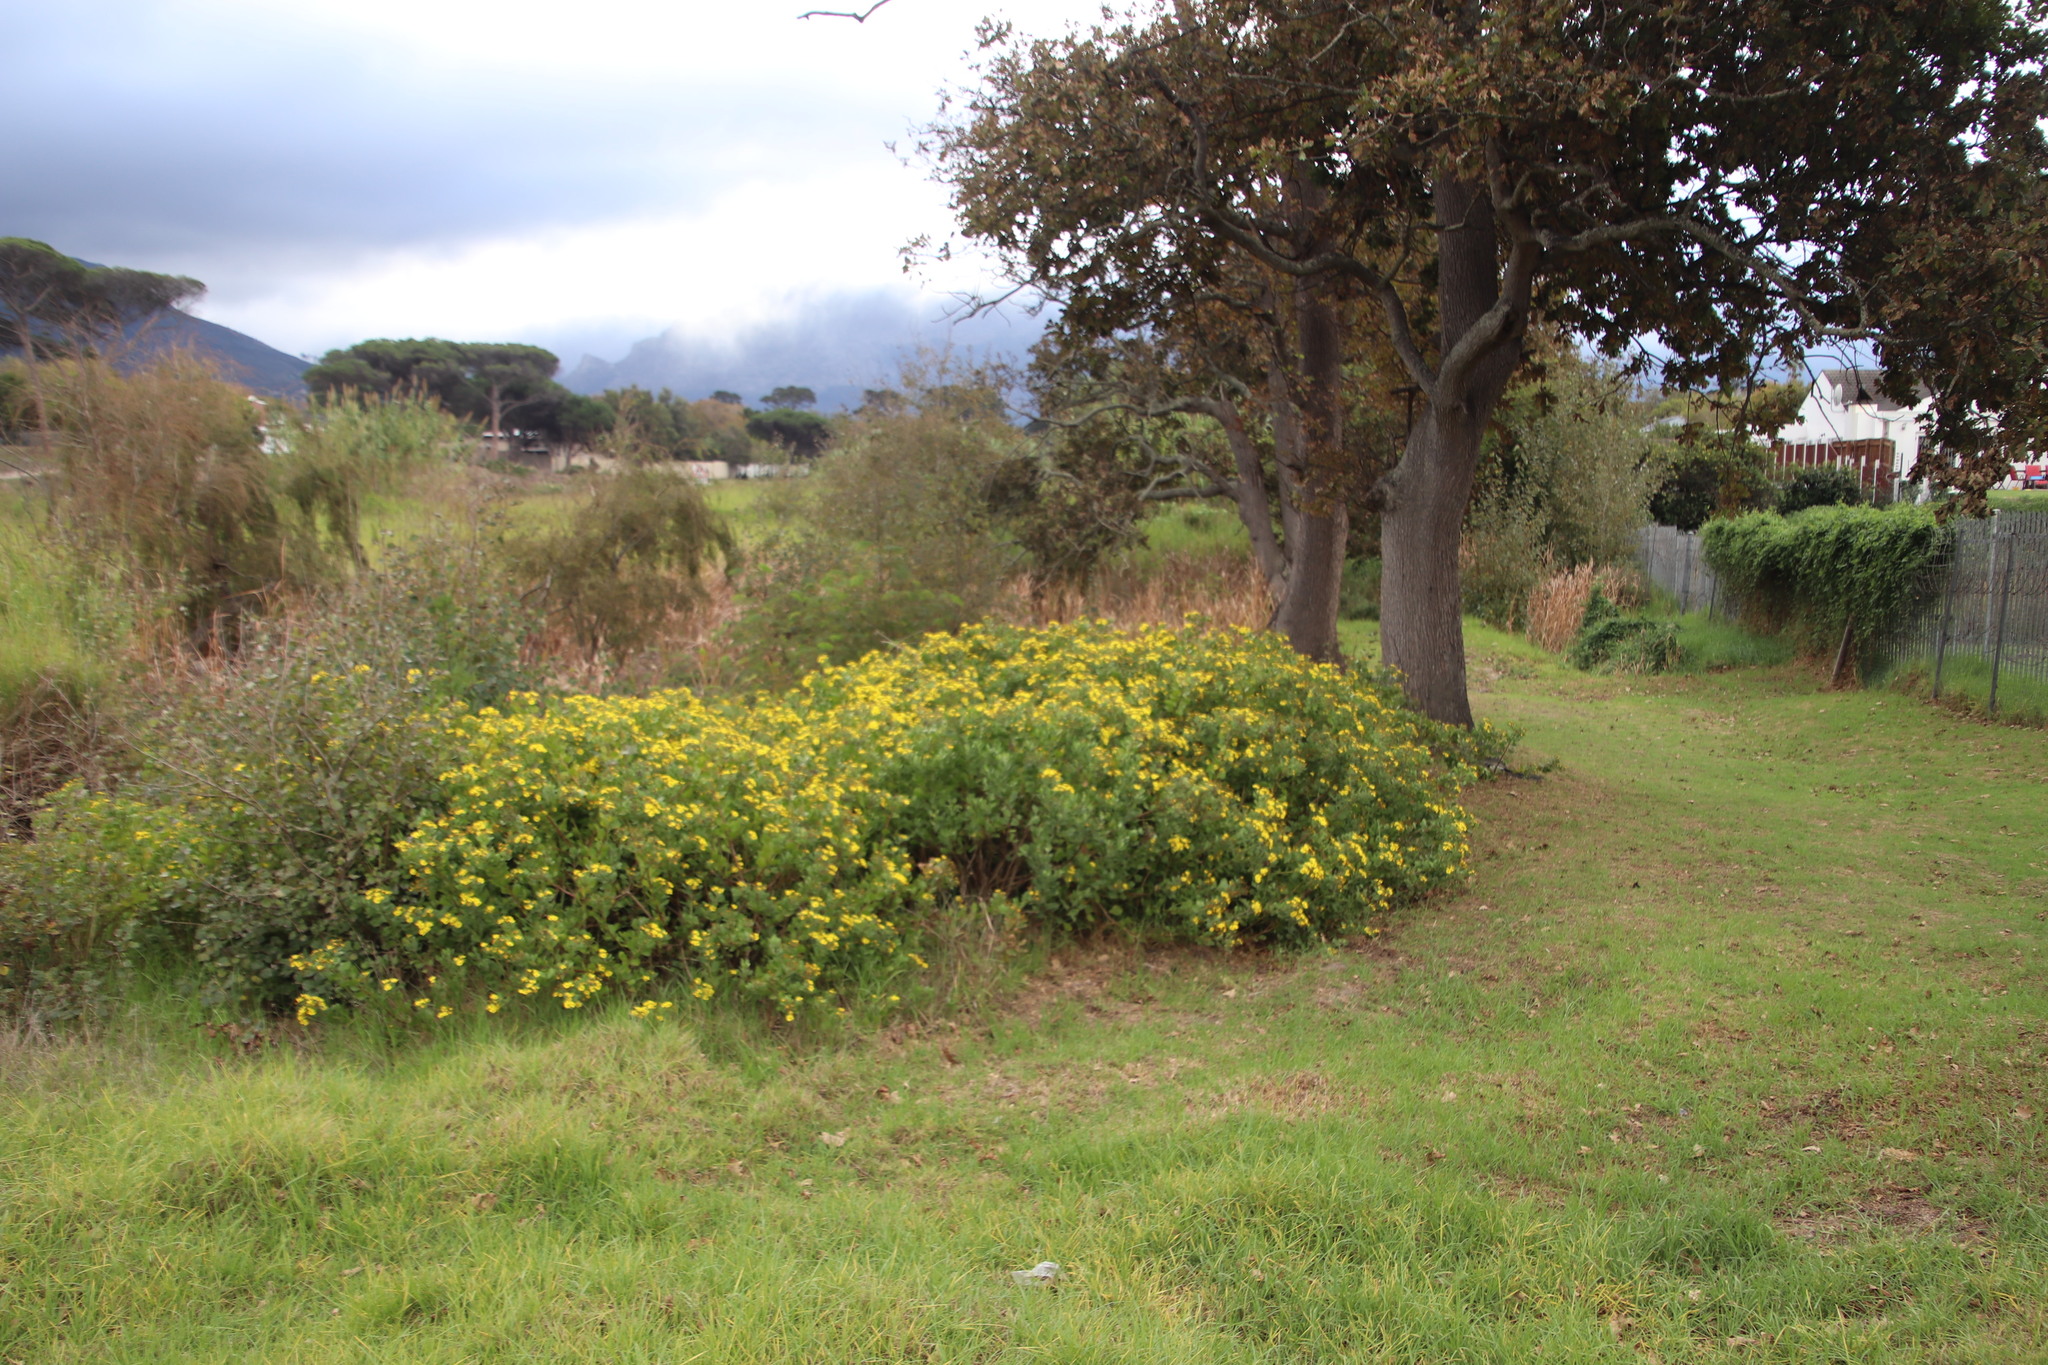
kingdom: Plantae
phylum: Tracheophyta
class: Magnoliopsida
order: Asterales
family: Asteraceae
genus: Osteospermum
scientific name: Osteospermum moniliferum
